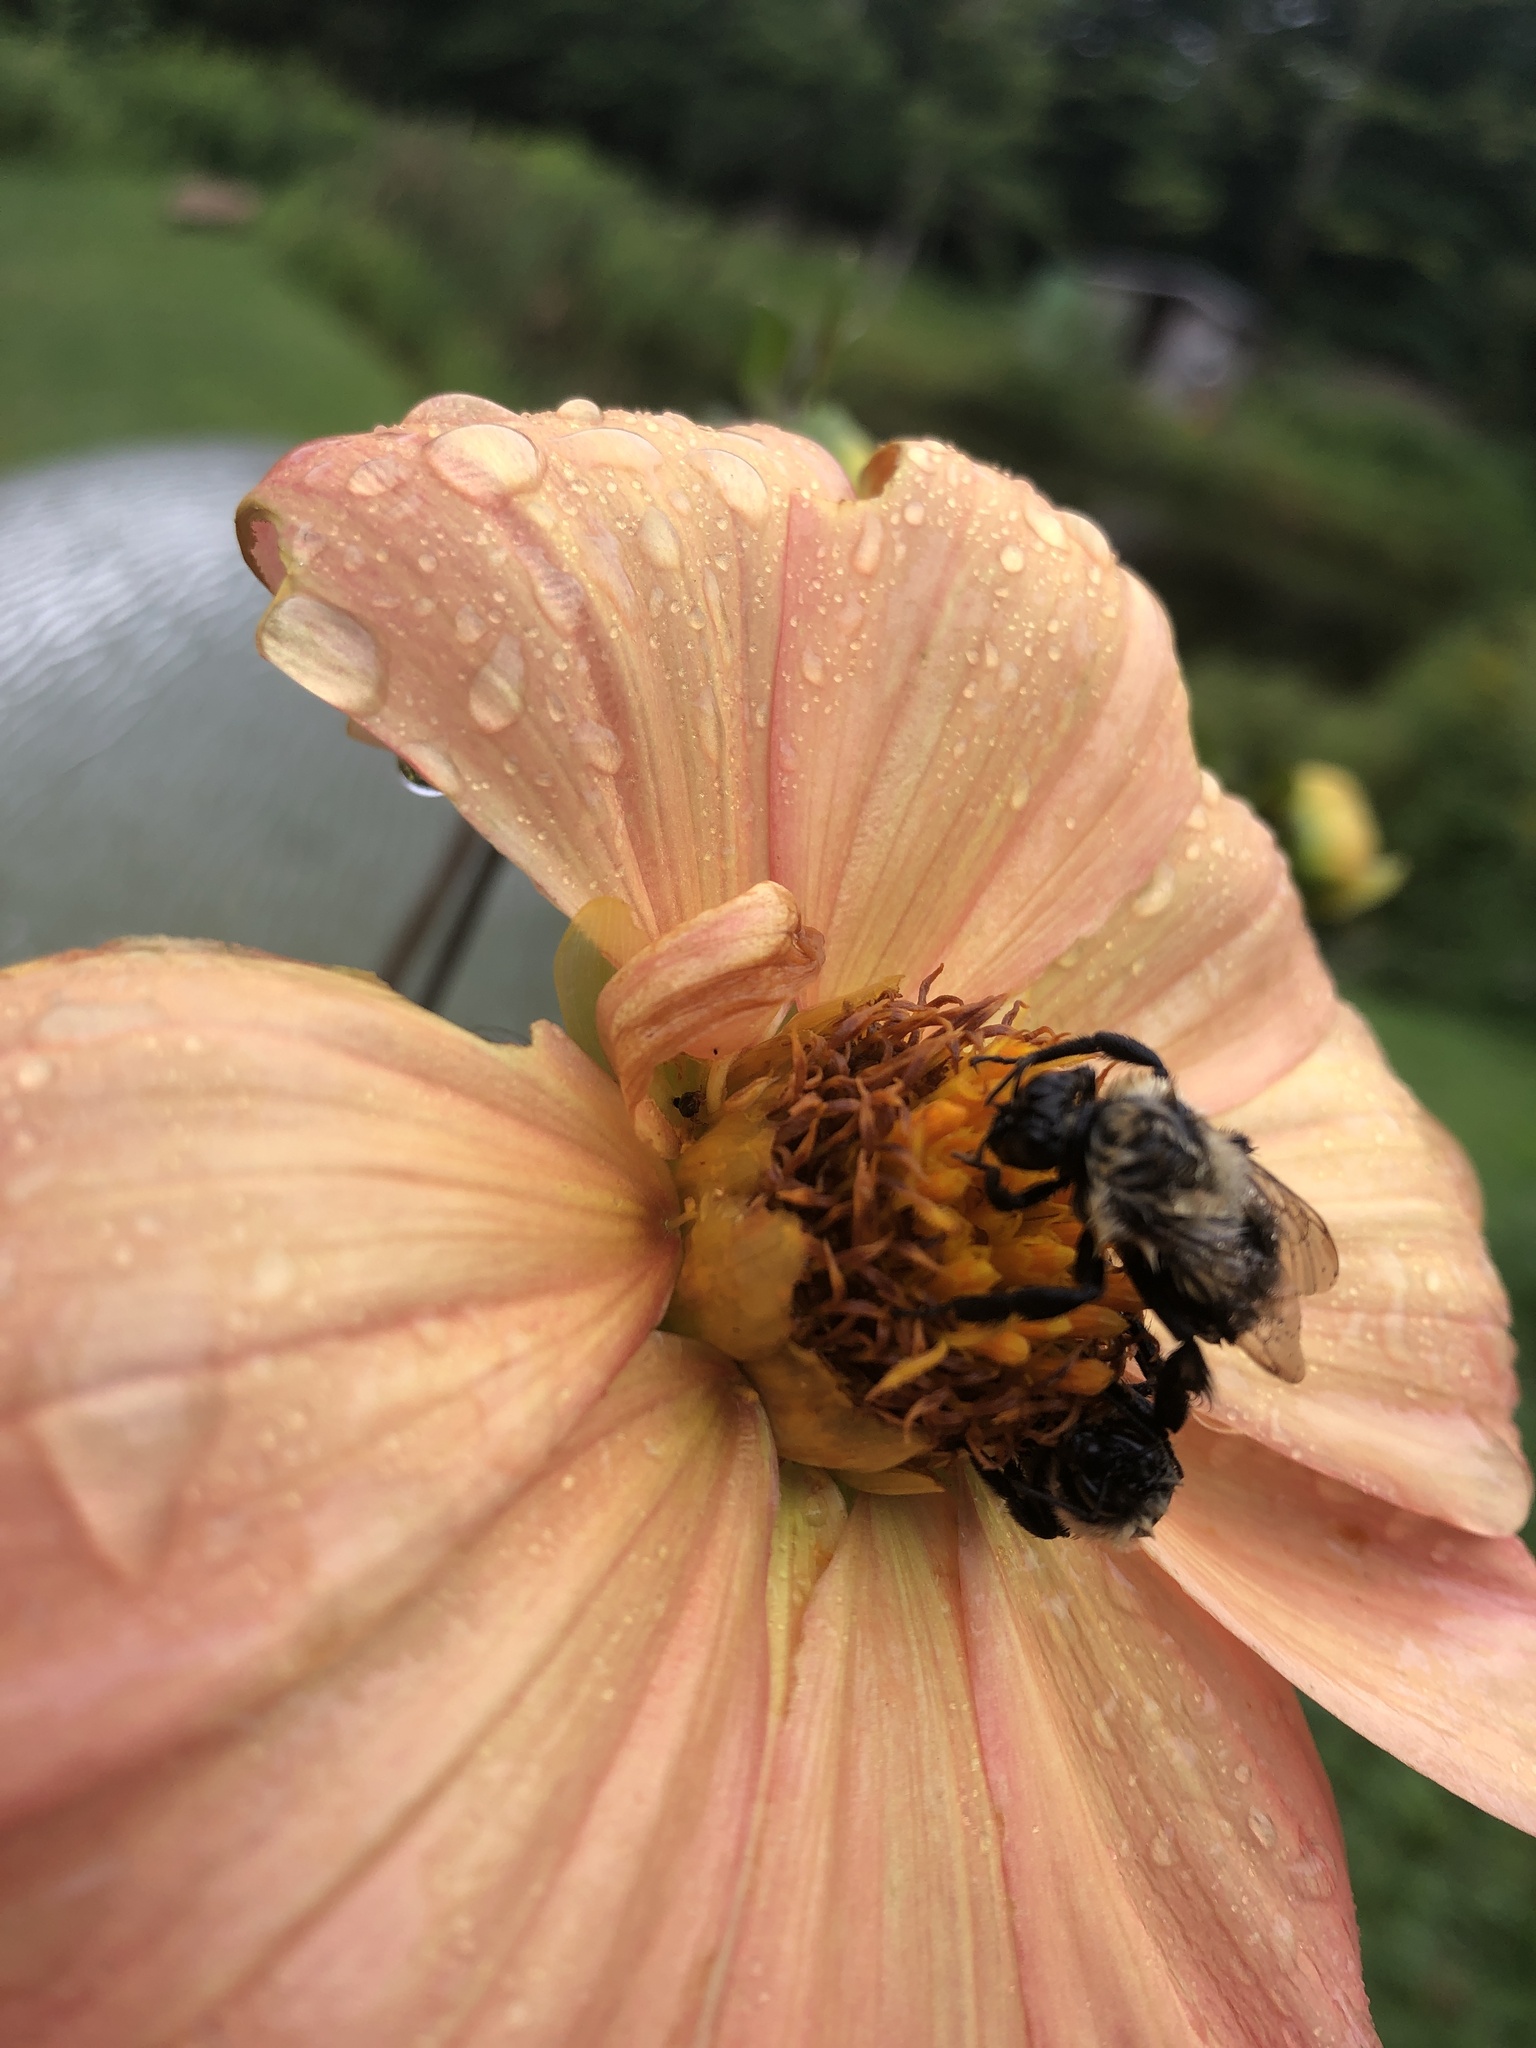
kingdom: Animalia
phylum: Arthropoda
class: Insecta
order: Hymenoptera
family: Apidae
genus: Bombus
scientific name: Bombus impatiens
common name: Common eastern bumble bee
